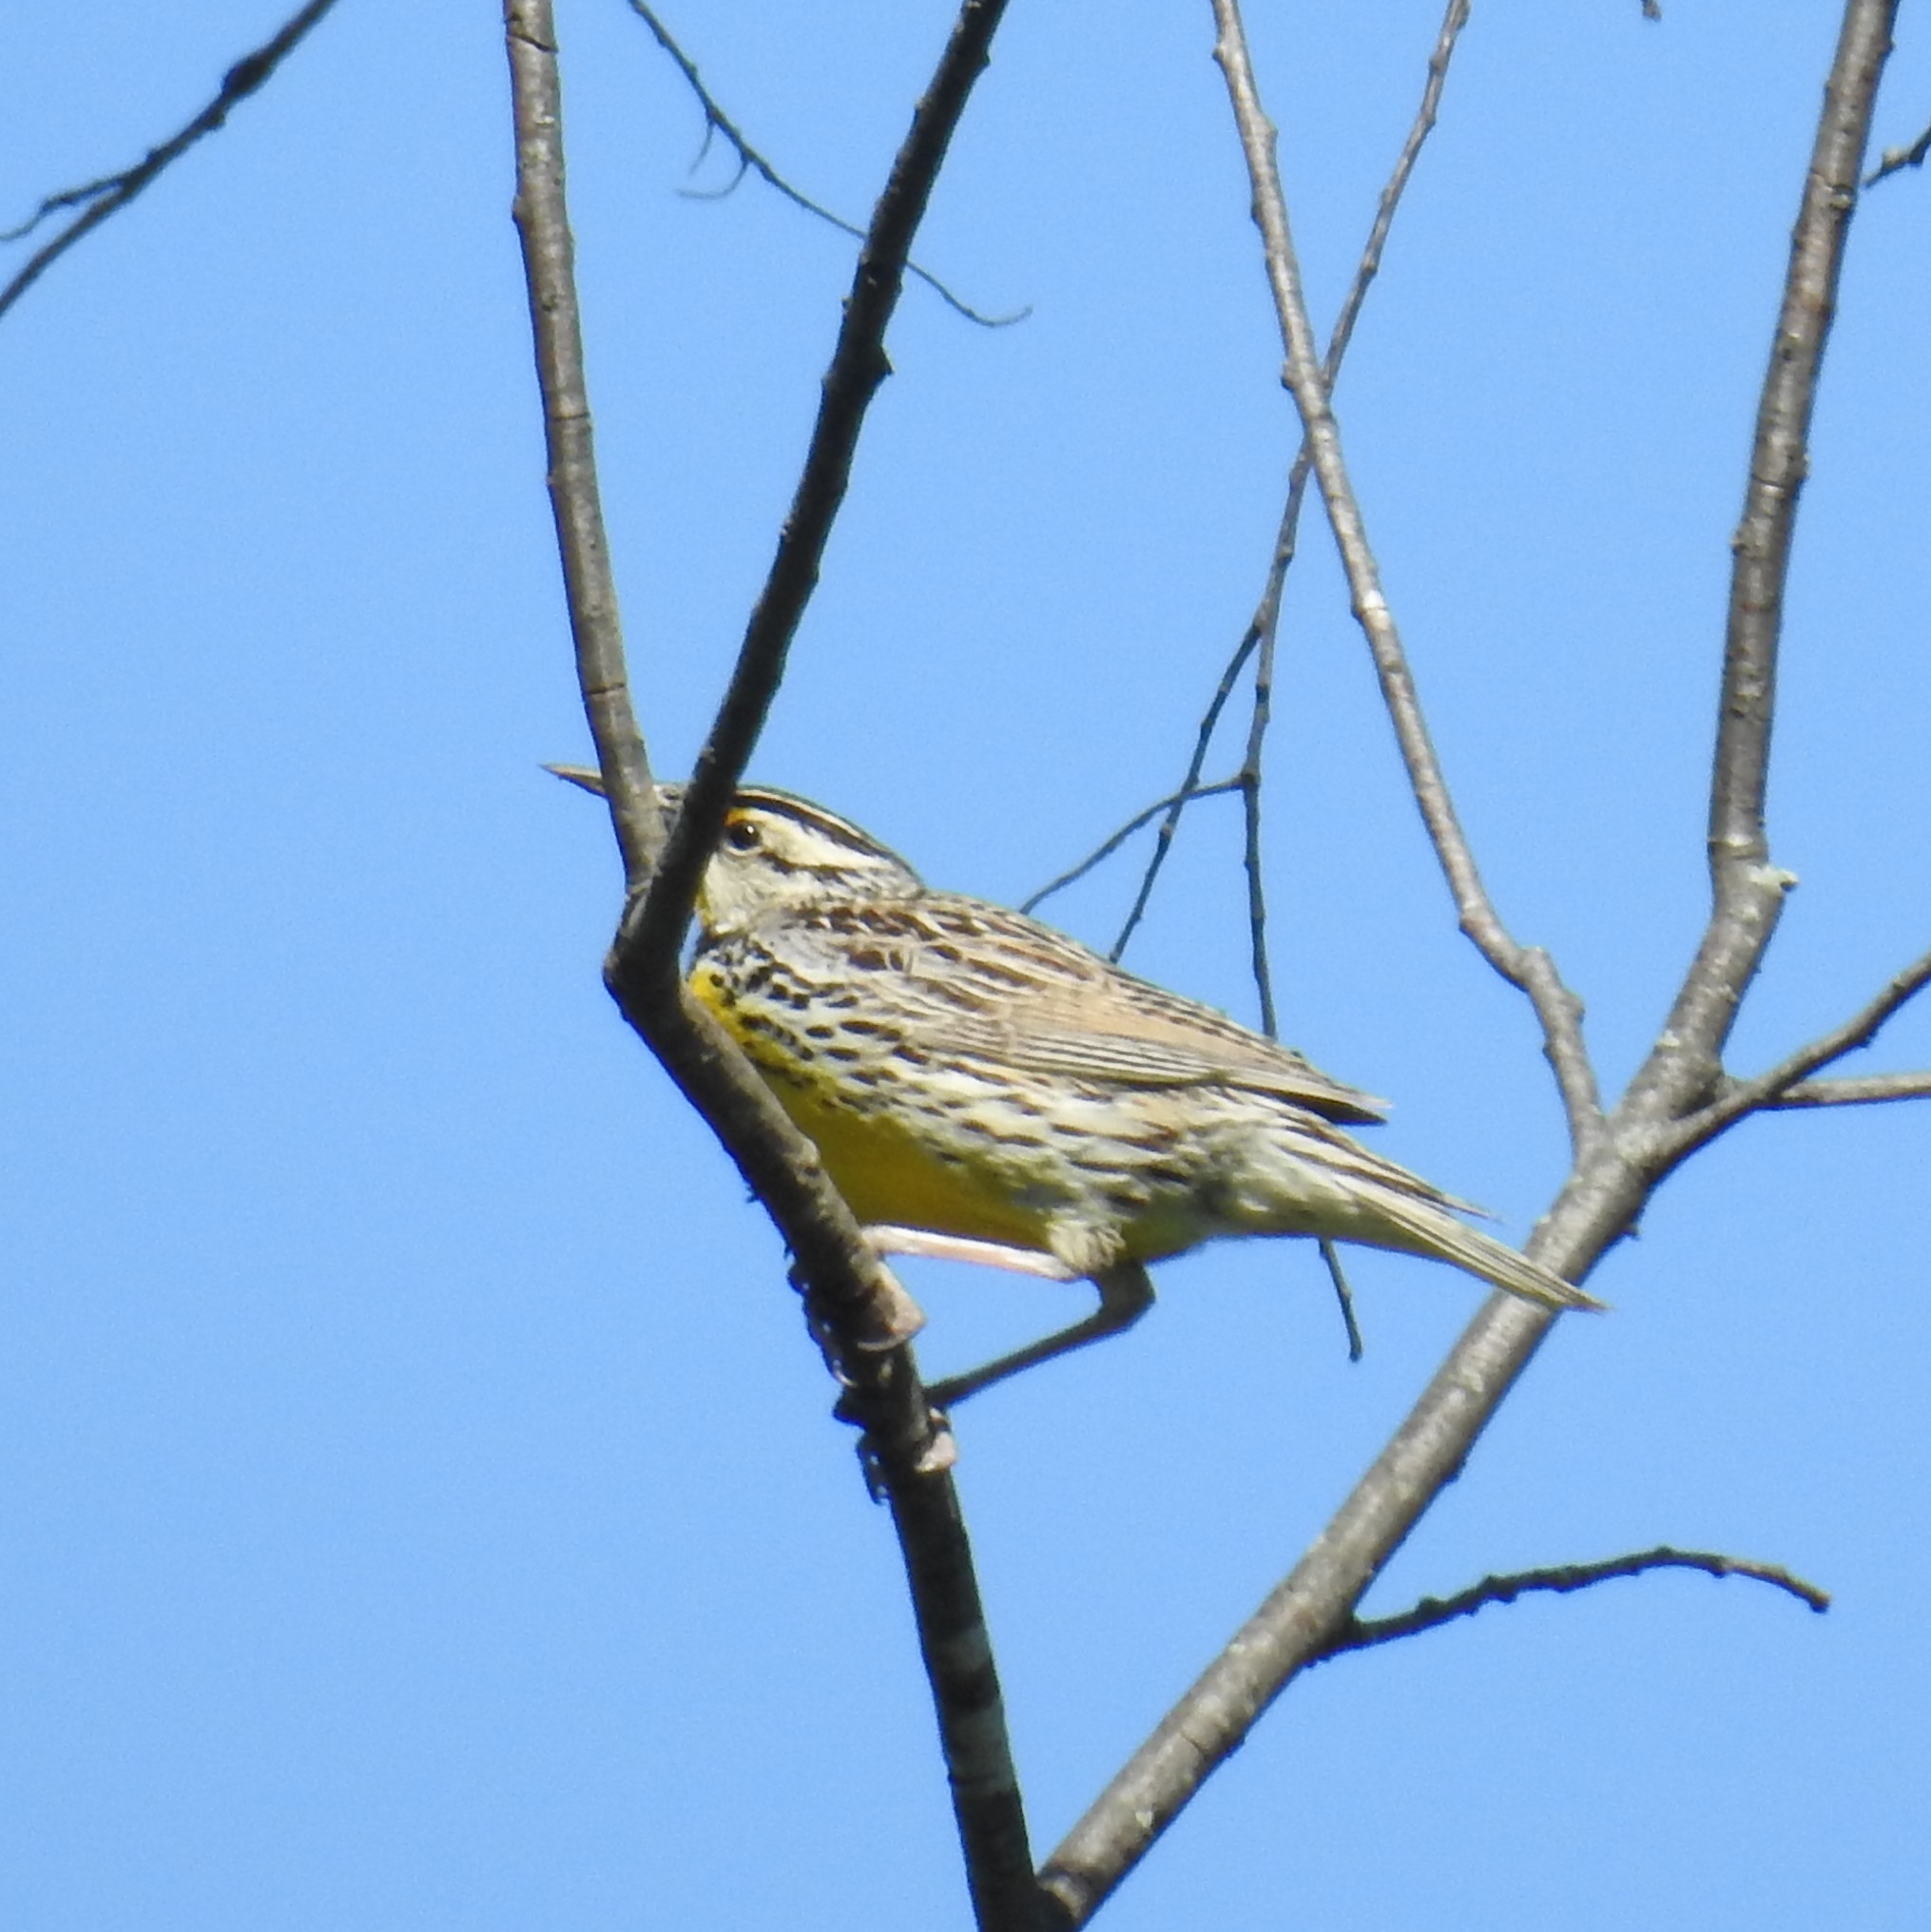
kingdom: Animalia
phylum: Chordata
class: Aves
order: Passeriformes
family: Icteridae
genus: Sturnella
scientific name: Sturnella magna
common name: Eastern meadowlark
